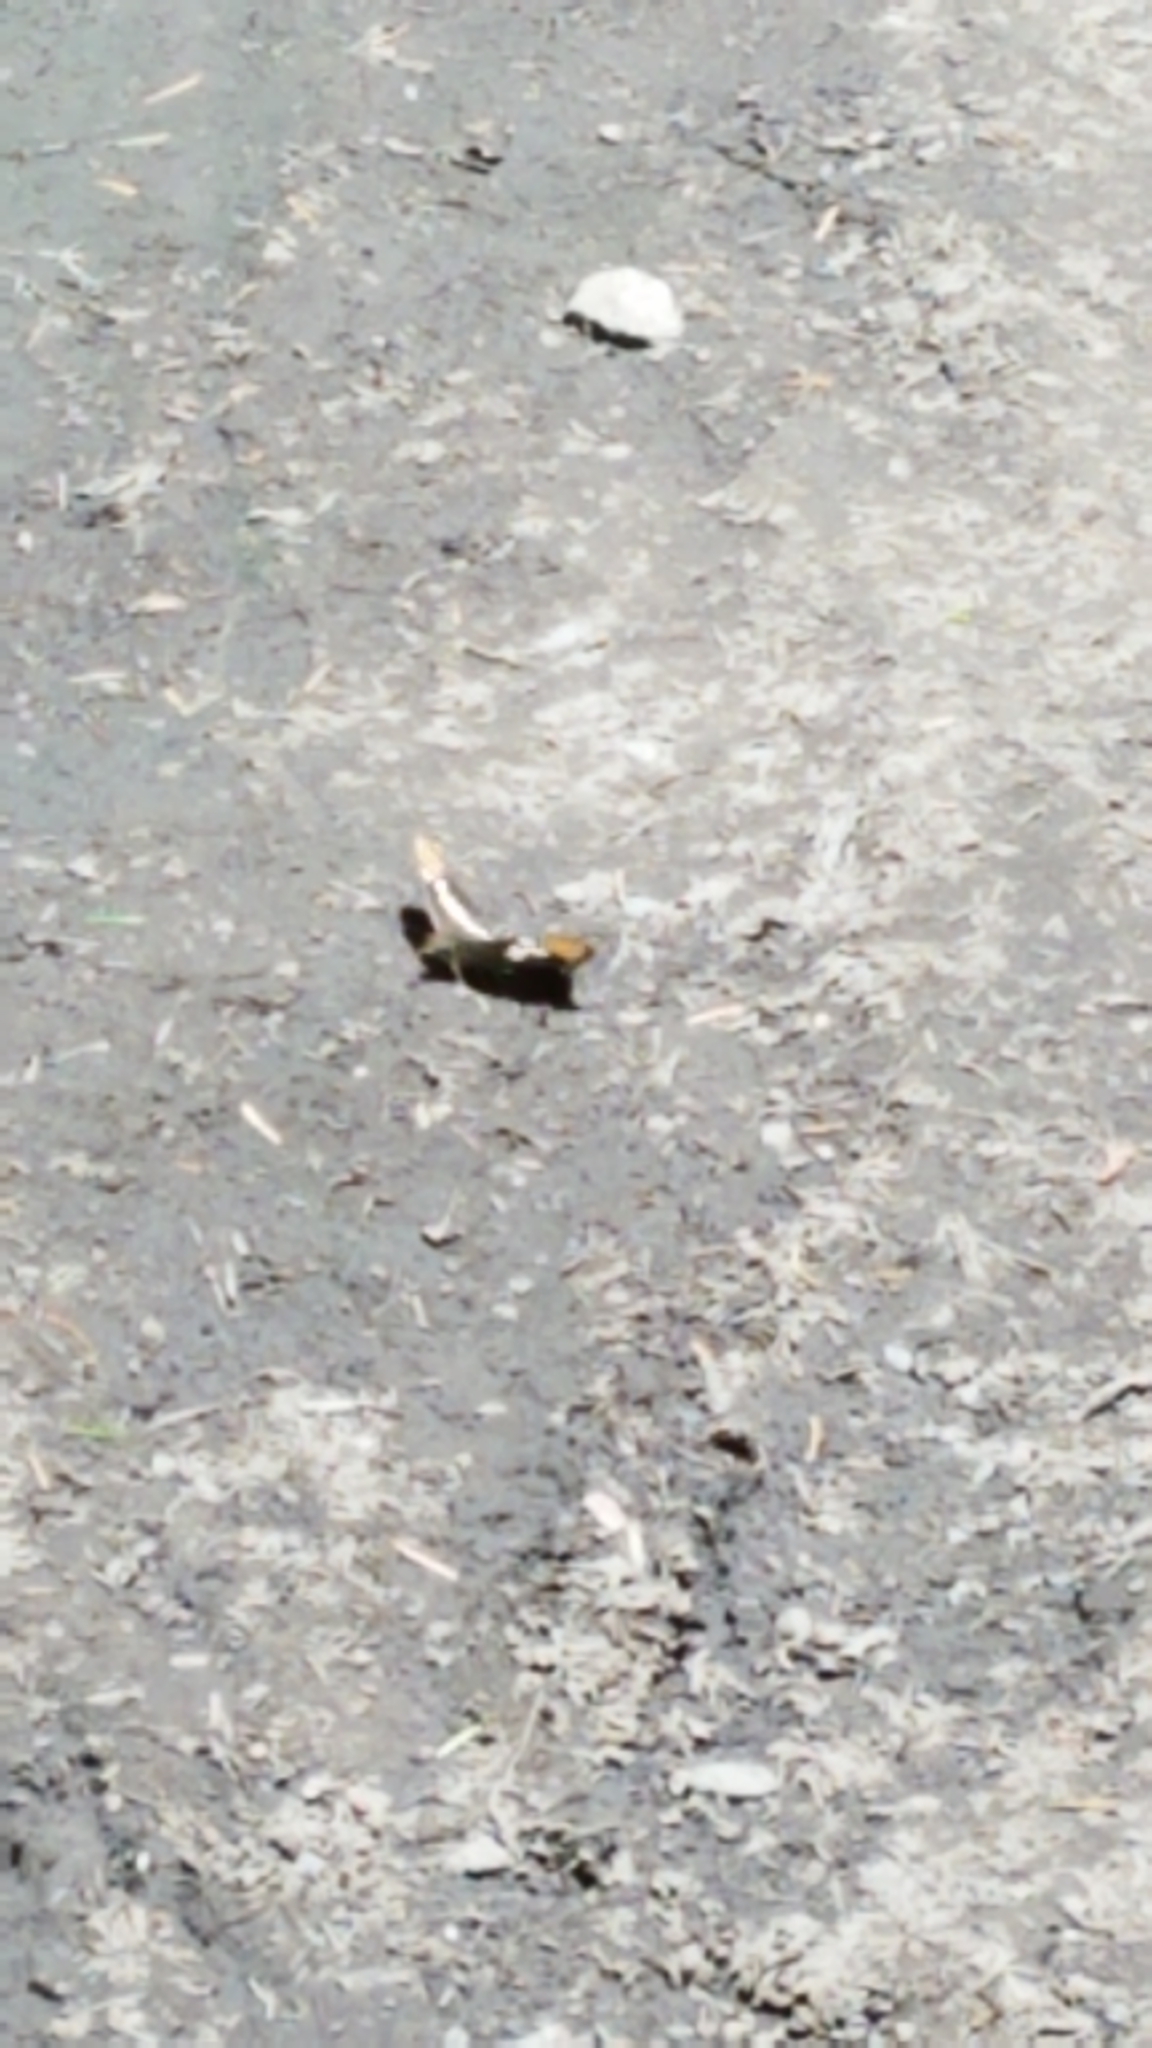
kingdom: Animalia
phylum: Arthropoda
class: Insecta
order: Lepidoptera
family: Nymphalidae
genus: Limenitis
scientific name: Limenitis bredowii
